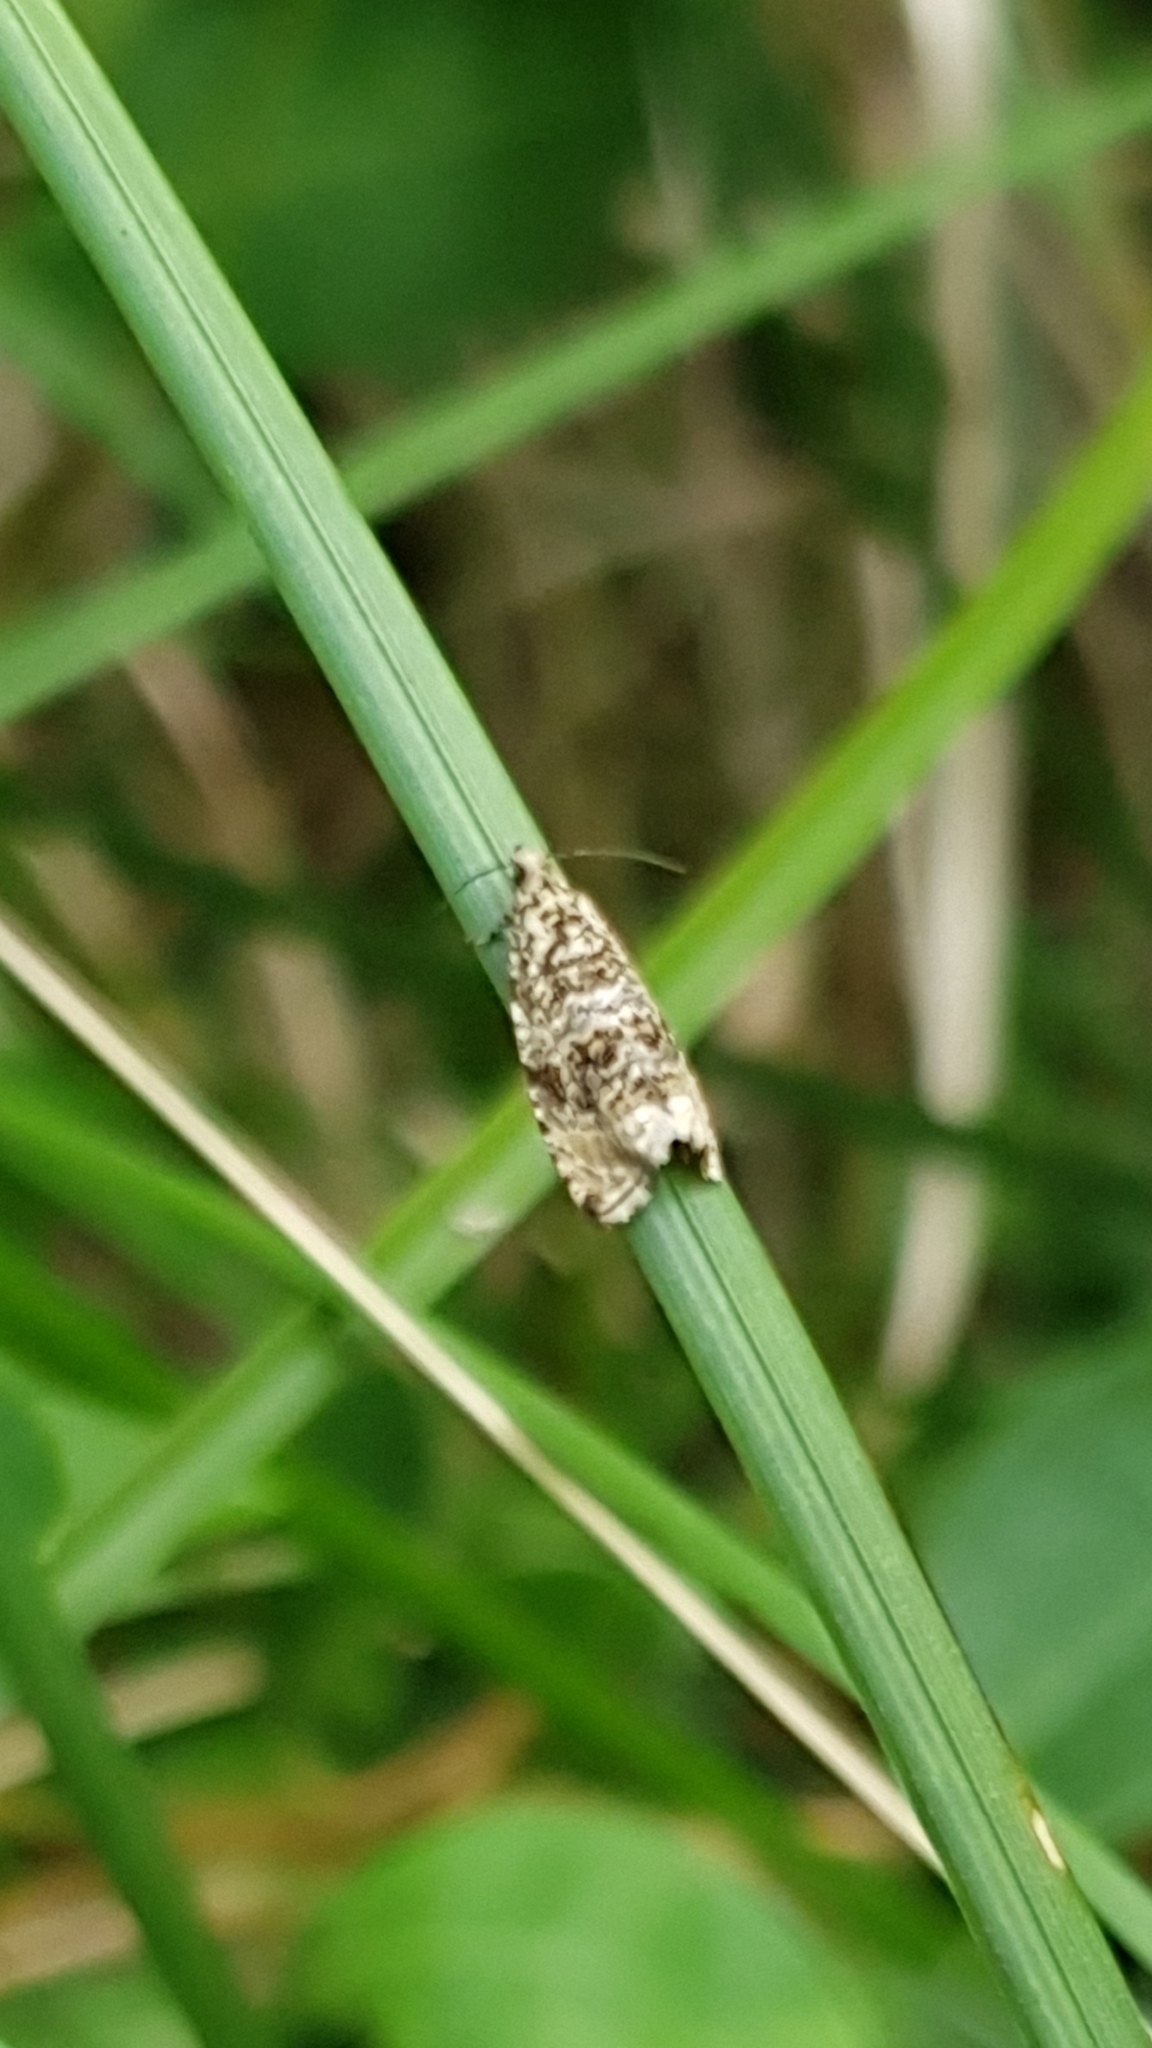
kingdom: Animalia
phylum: Arthropoda
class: Insecta
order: Lepidoptera
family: Tortricidae
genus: Syricoris
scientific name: Syricoris lacunana
